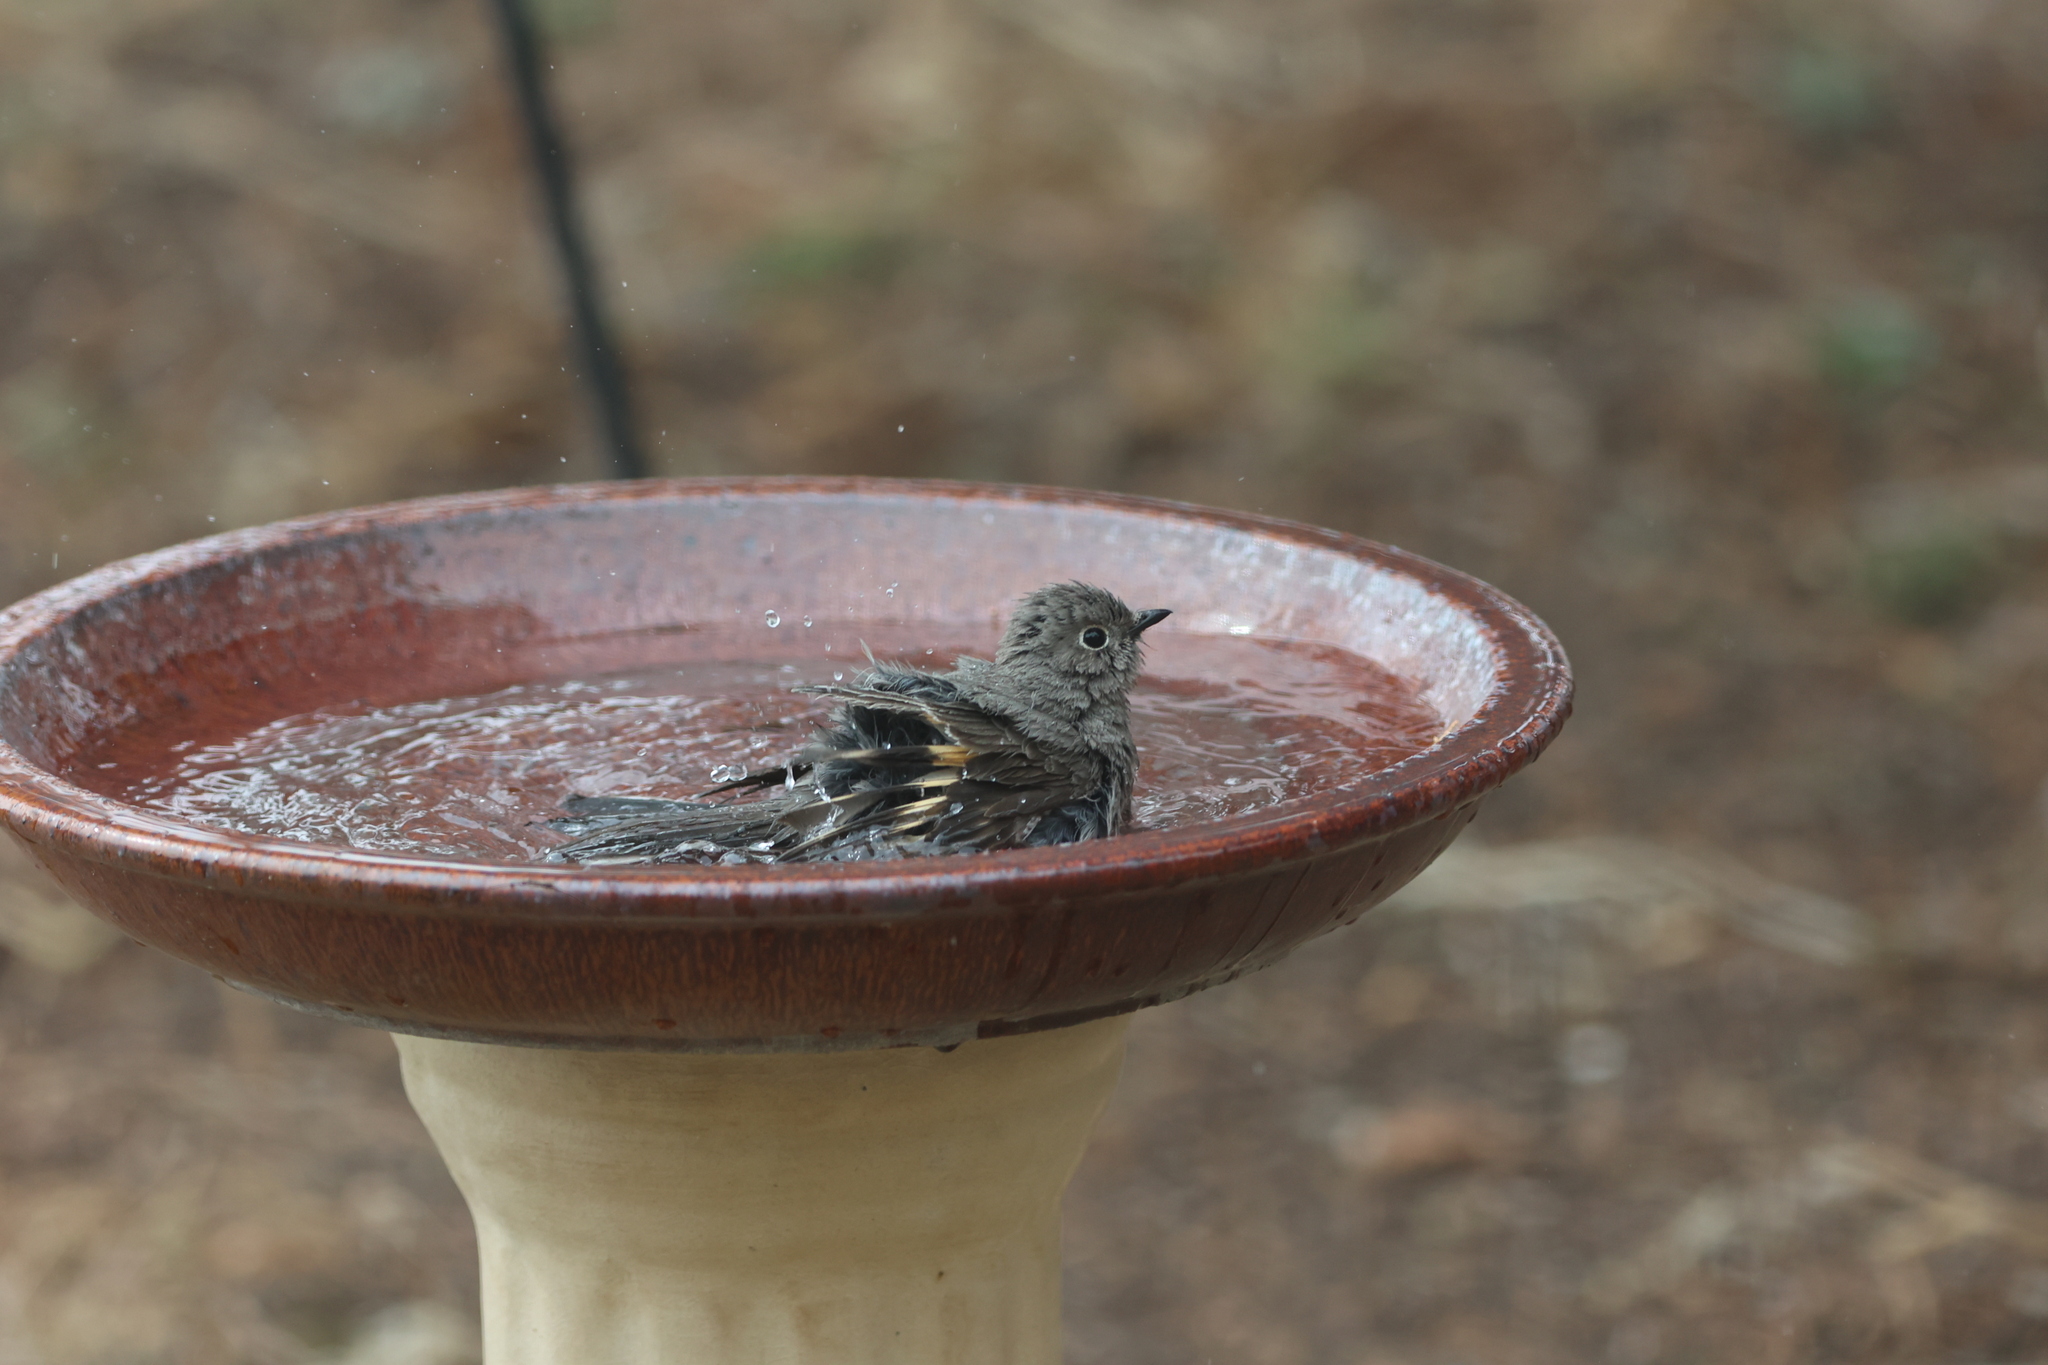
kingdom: Animalia
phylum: Chordata
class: Aves
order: Passeriformes
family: Turdidae
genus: Myadestes
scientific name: Myadestes townsendi
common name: Townsend's solitaire
